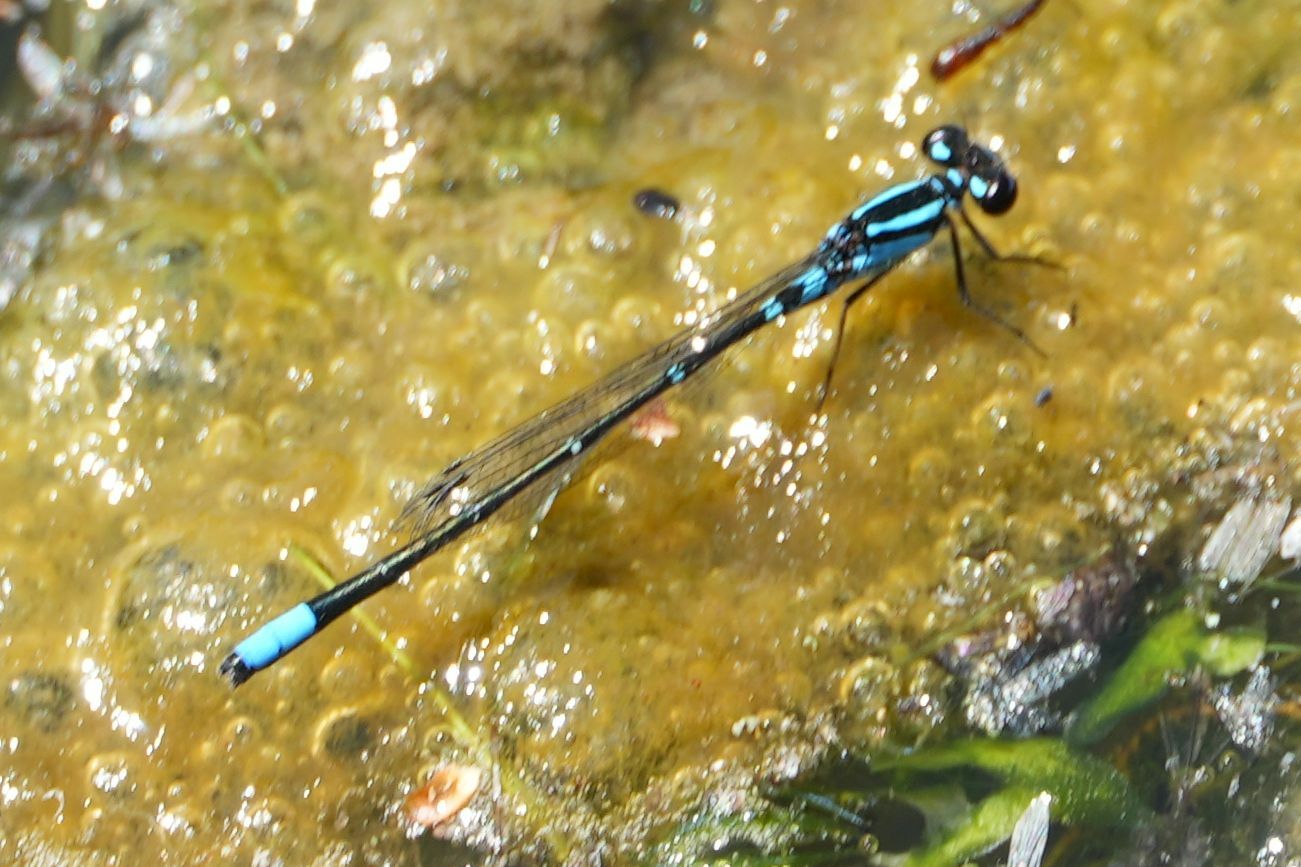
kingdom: Animalia
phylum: Arthropoda
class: Insecta
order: Odonata
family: Coenagrionidae
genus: Enallagma
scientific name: Enallagma geminatum
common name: Skimming bluet
